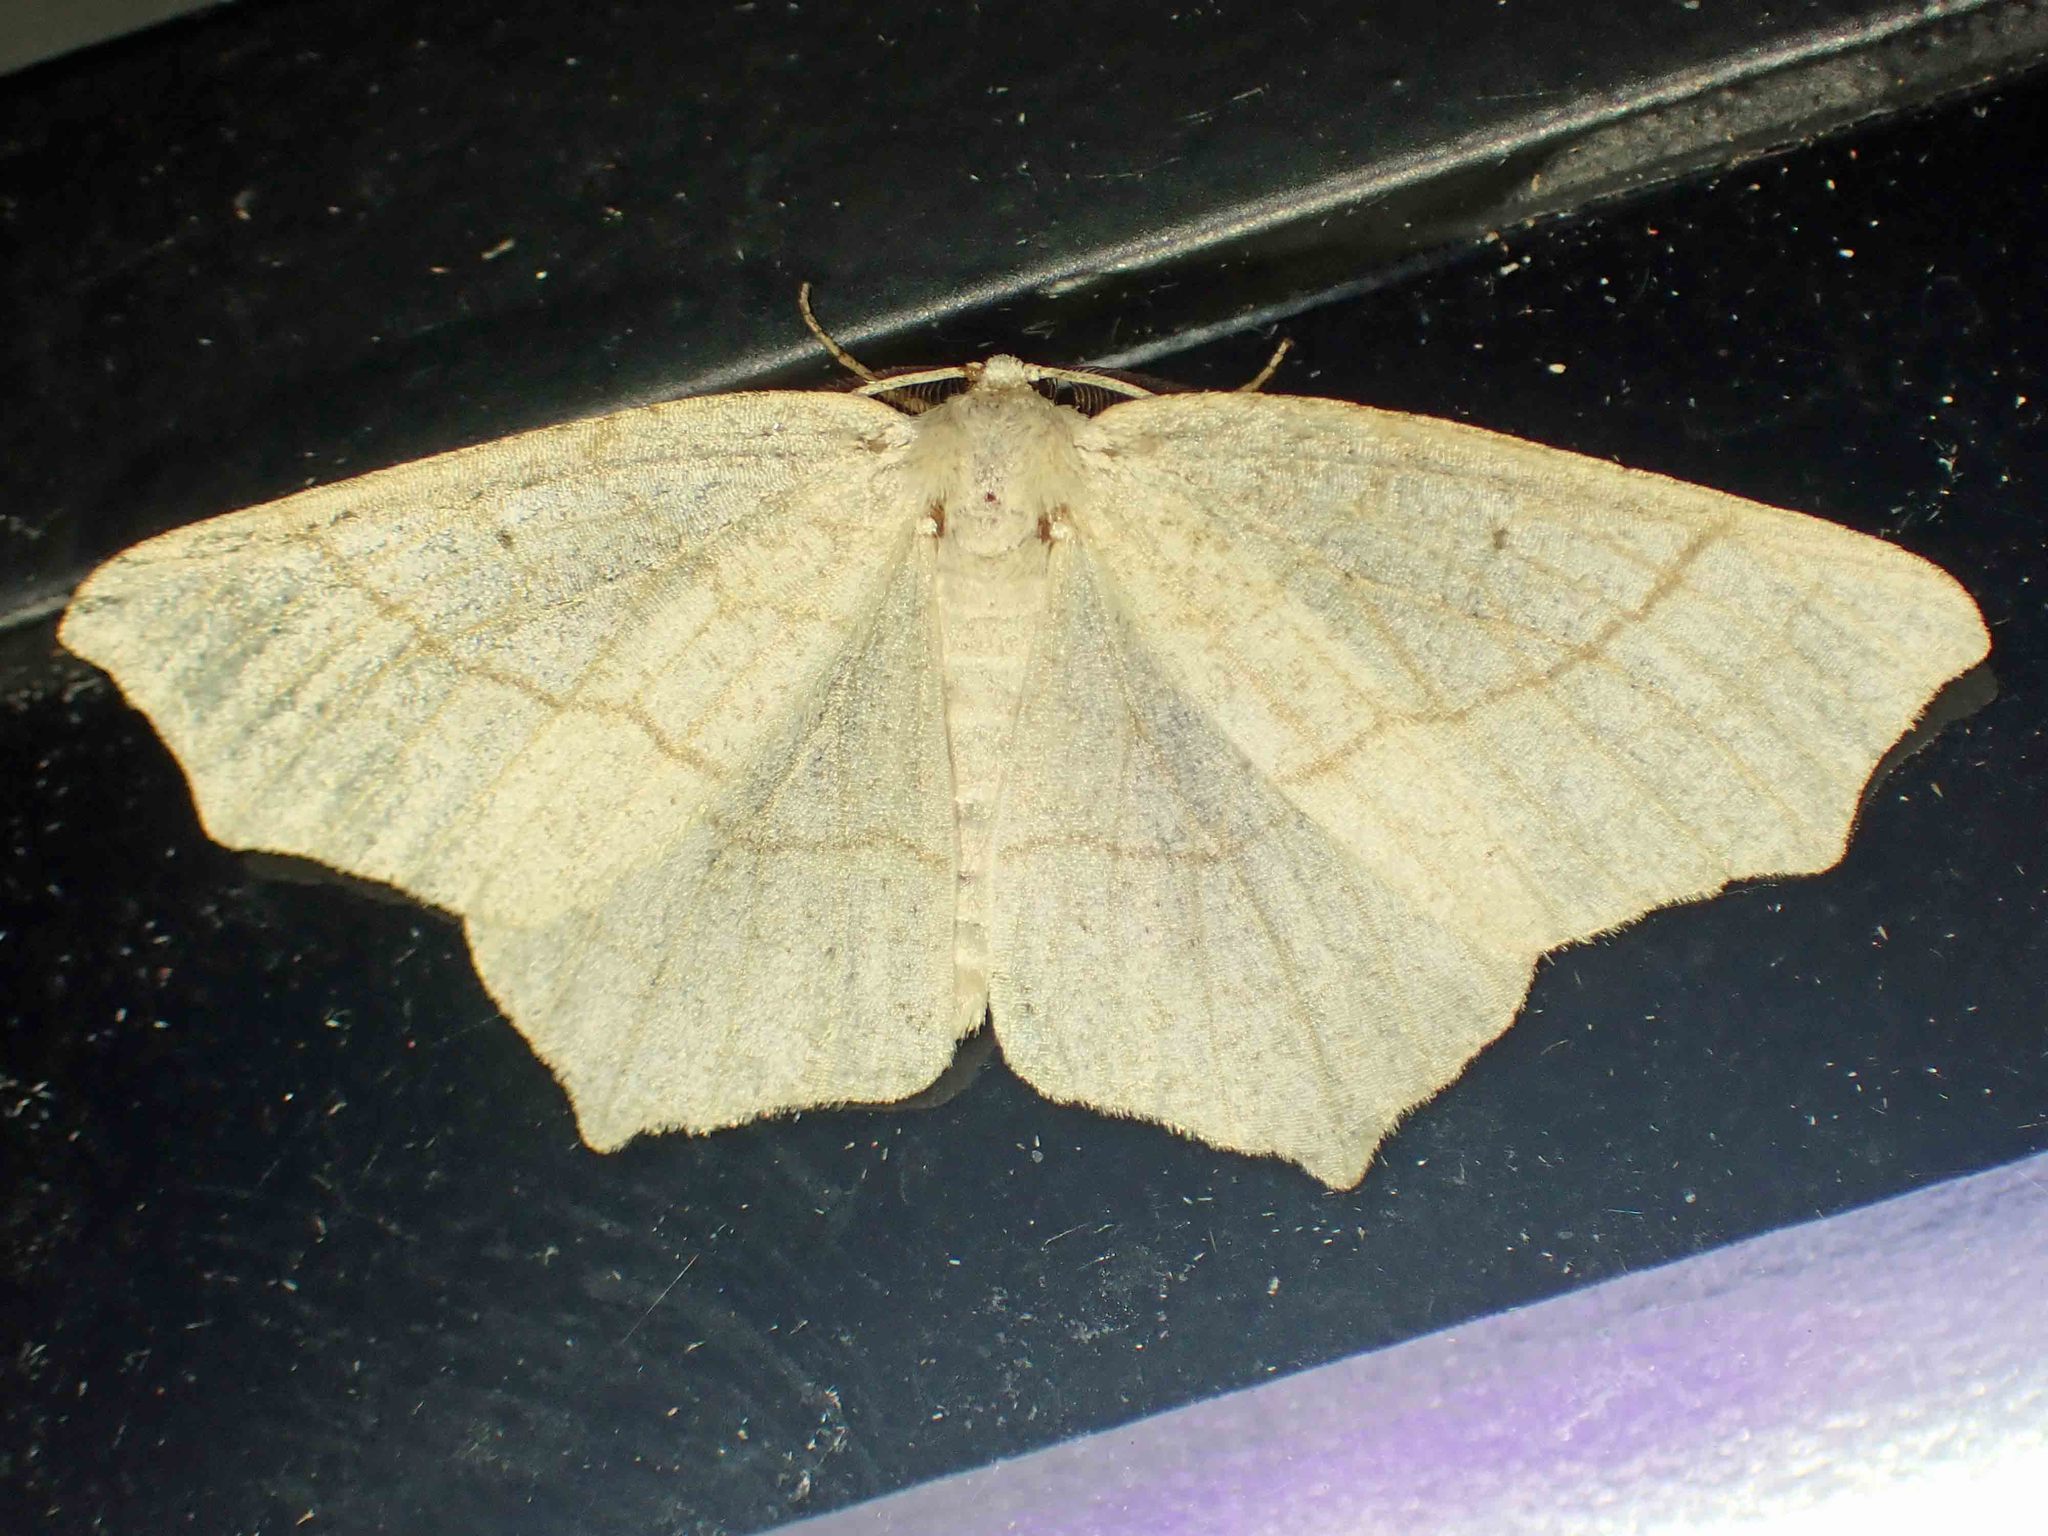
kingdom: Animalia
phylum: Arthropoda
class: Insecta
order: Lepidoptera
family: Geometridae
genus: Besma
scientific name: Besma quercivoraria
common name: Oak besma
